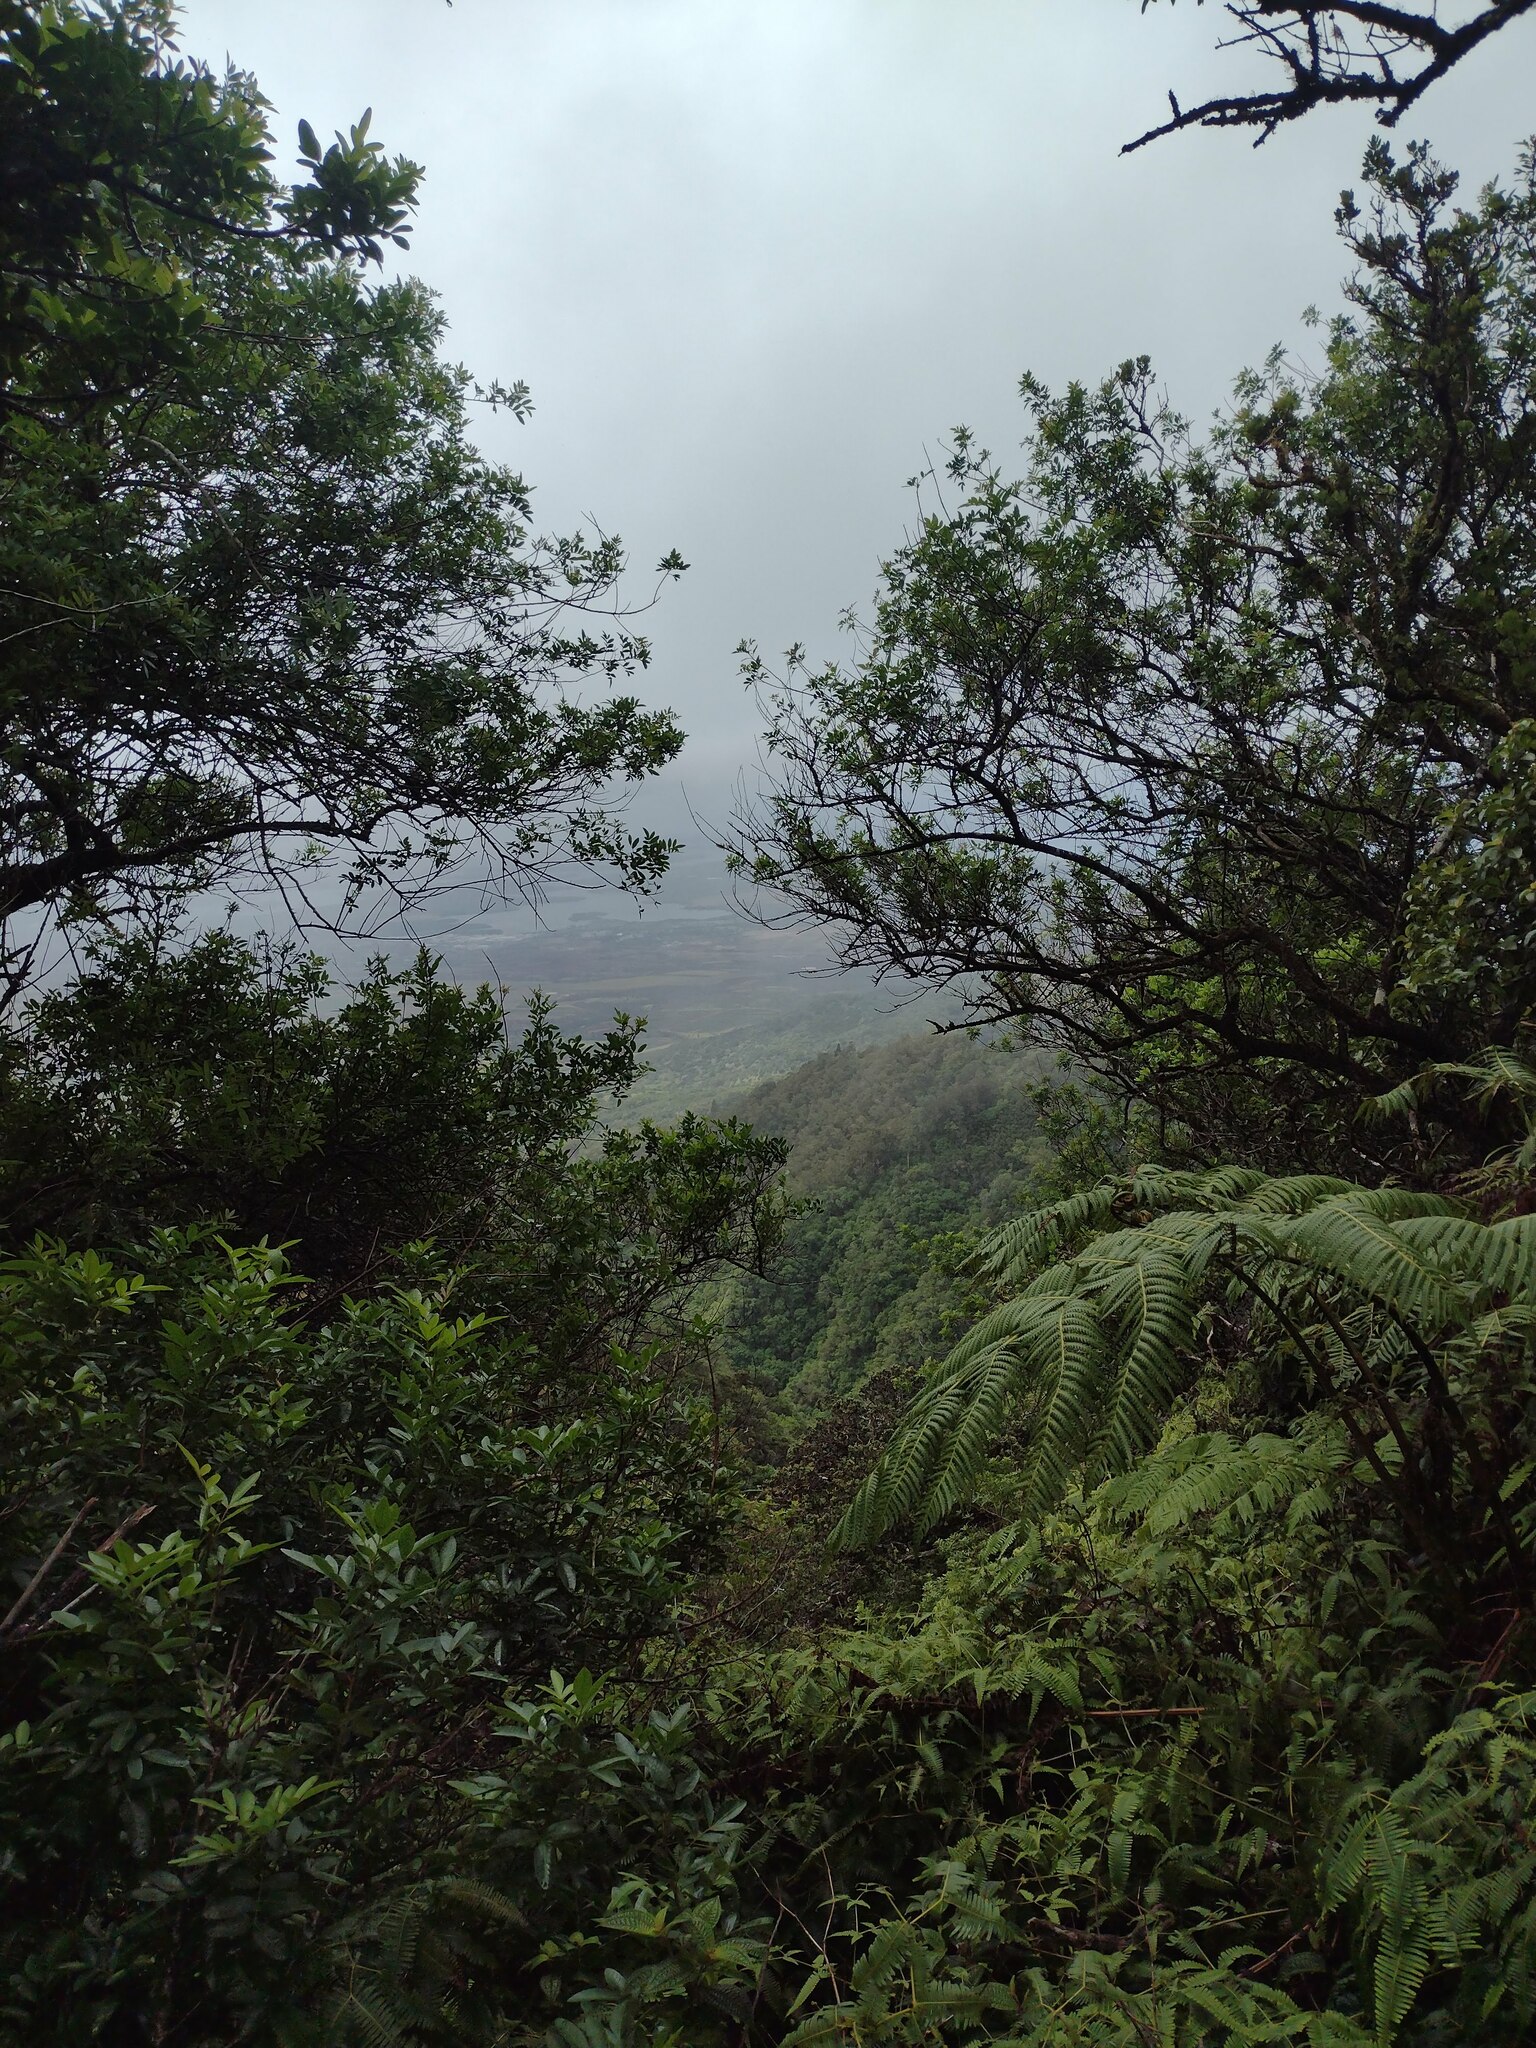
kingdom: Plantae
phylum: Tracheophyta
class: Magnoliopsida
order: Sapindales
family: Anacardiaceae
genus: Schinus
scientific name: Schinus terebinthifolia
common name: Brazilian peppertree
